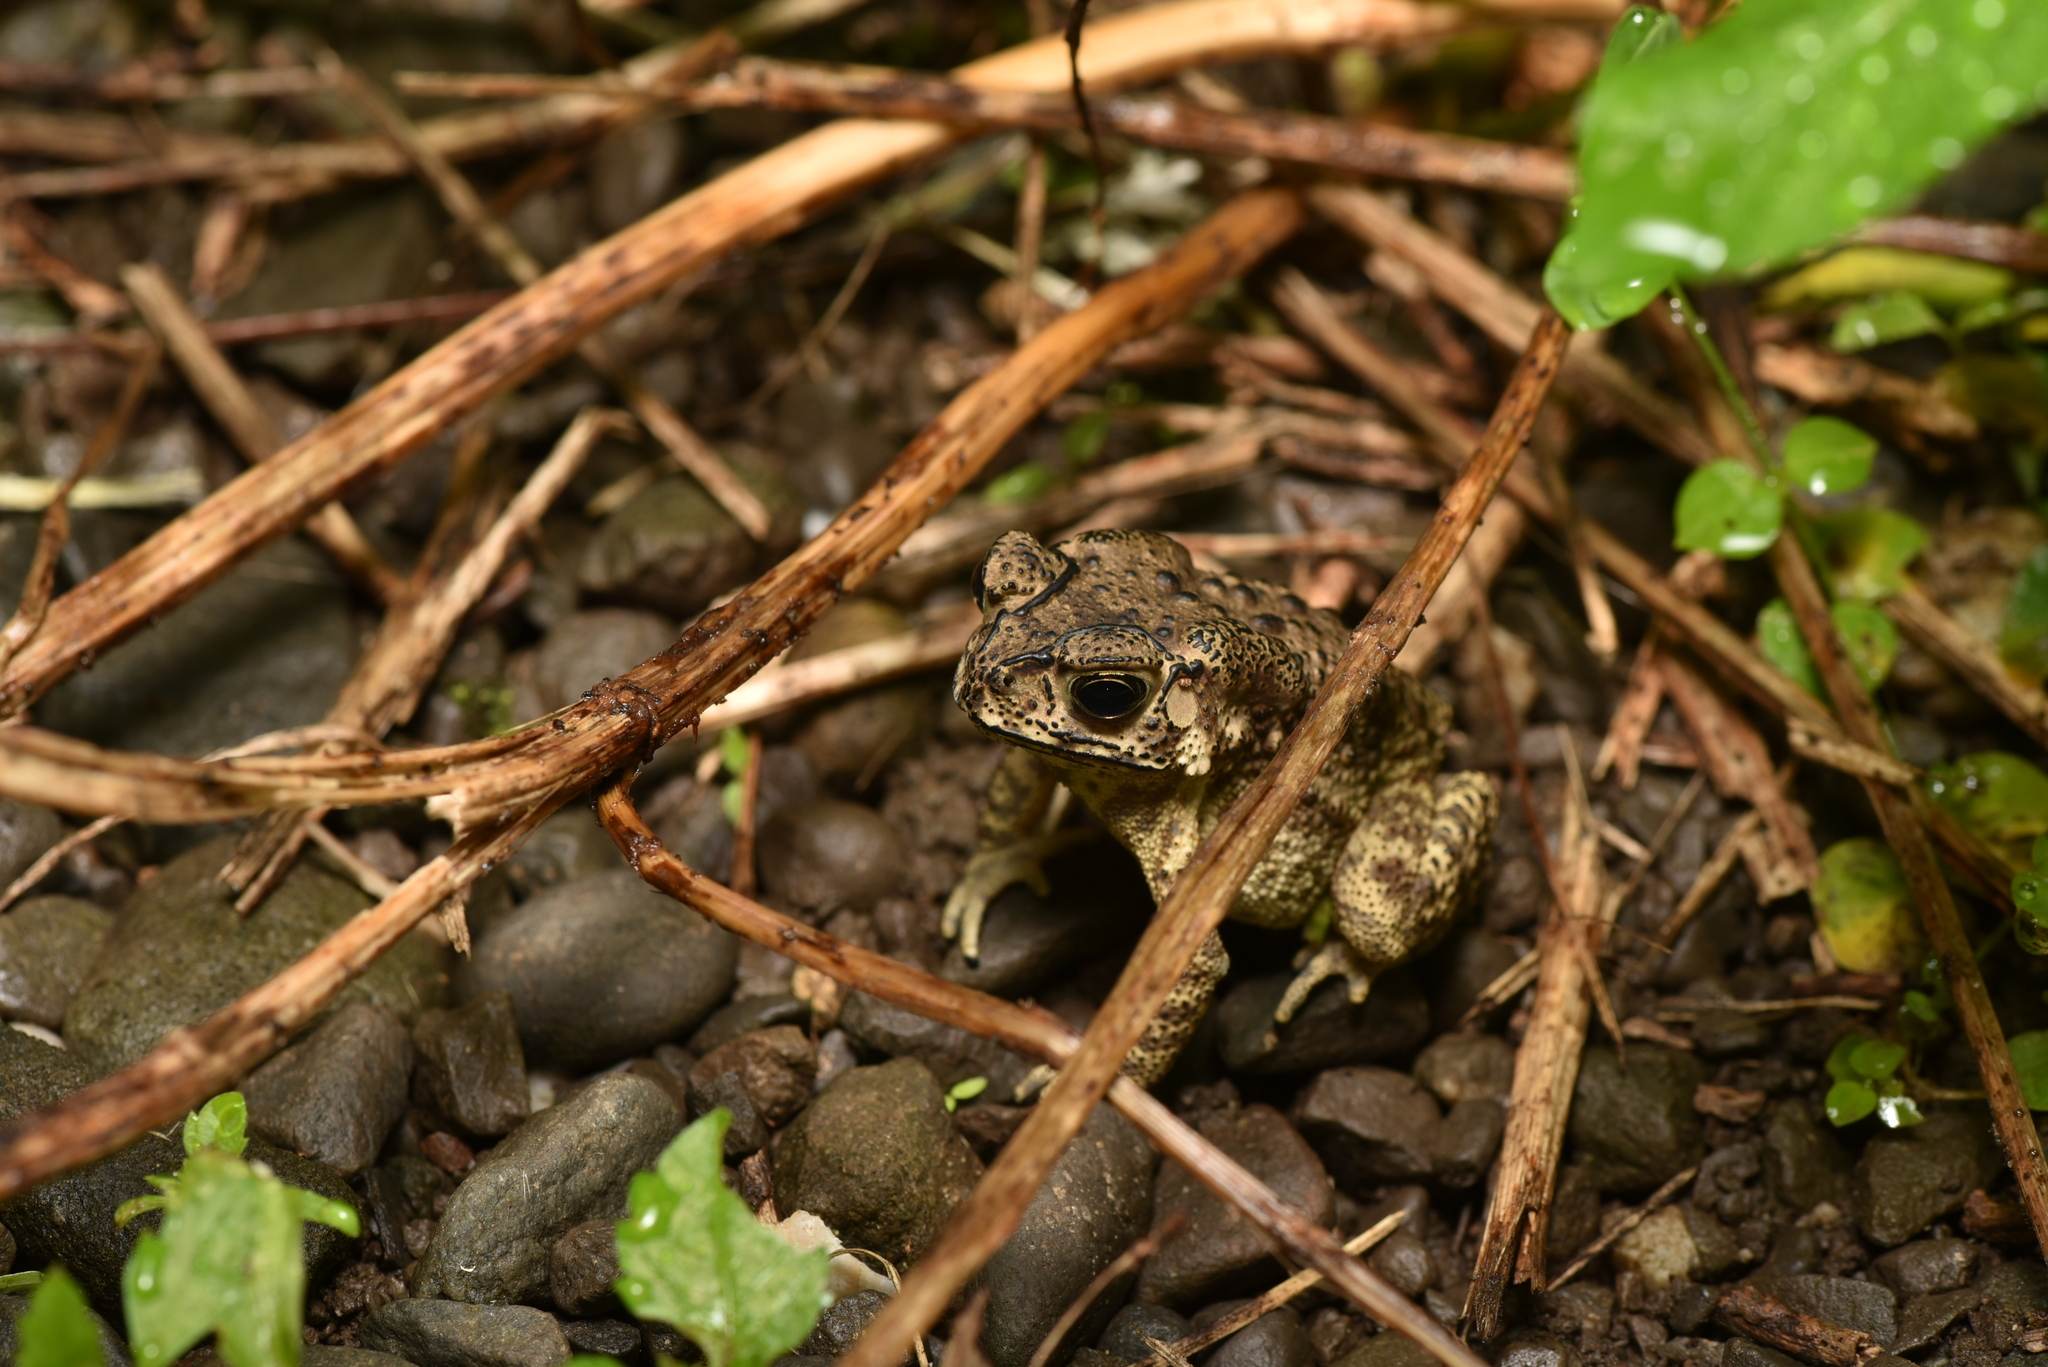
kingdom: Animalia
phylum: Chordata
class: Amphibia
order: Anura
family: Bufonidae
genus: Duttaphrynus
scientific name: Duttaphrynus melanostictus
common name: Common sunda toad
